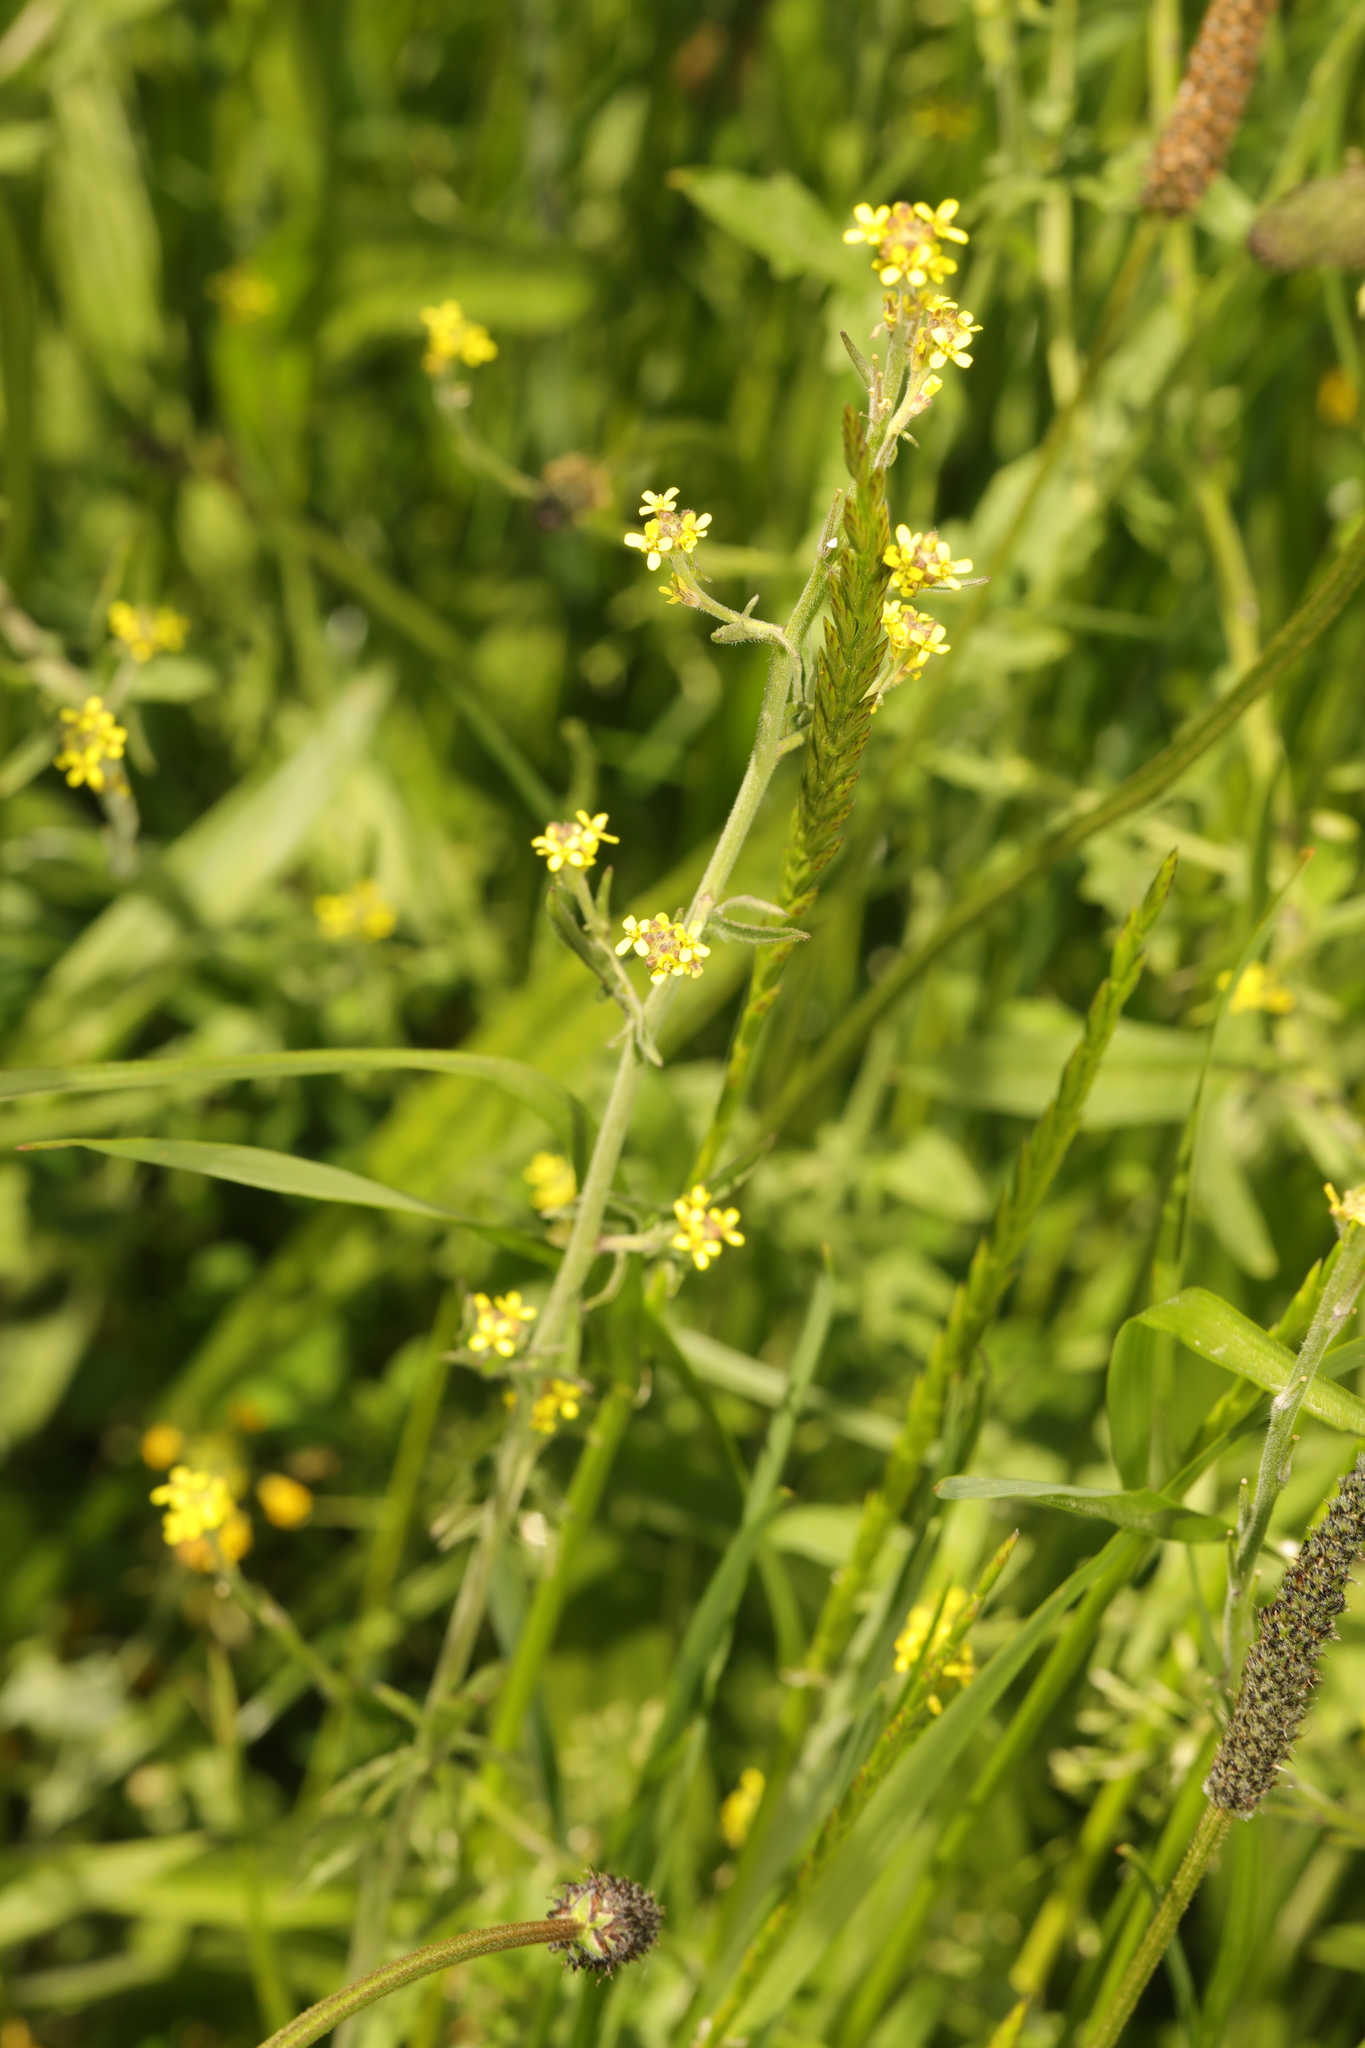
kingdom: Plantae
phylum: Tracheophyta
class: Magnoliopsida
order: Brassicales
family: Brassicaceae
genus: Sisymbrium
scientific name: Sisymbrium officinale
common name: Hedge mustard
